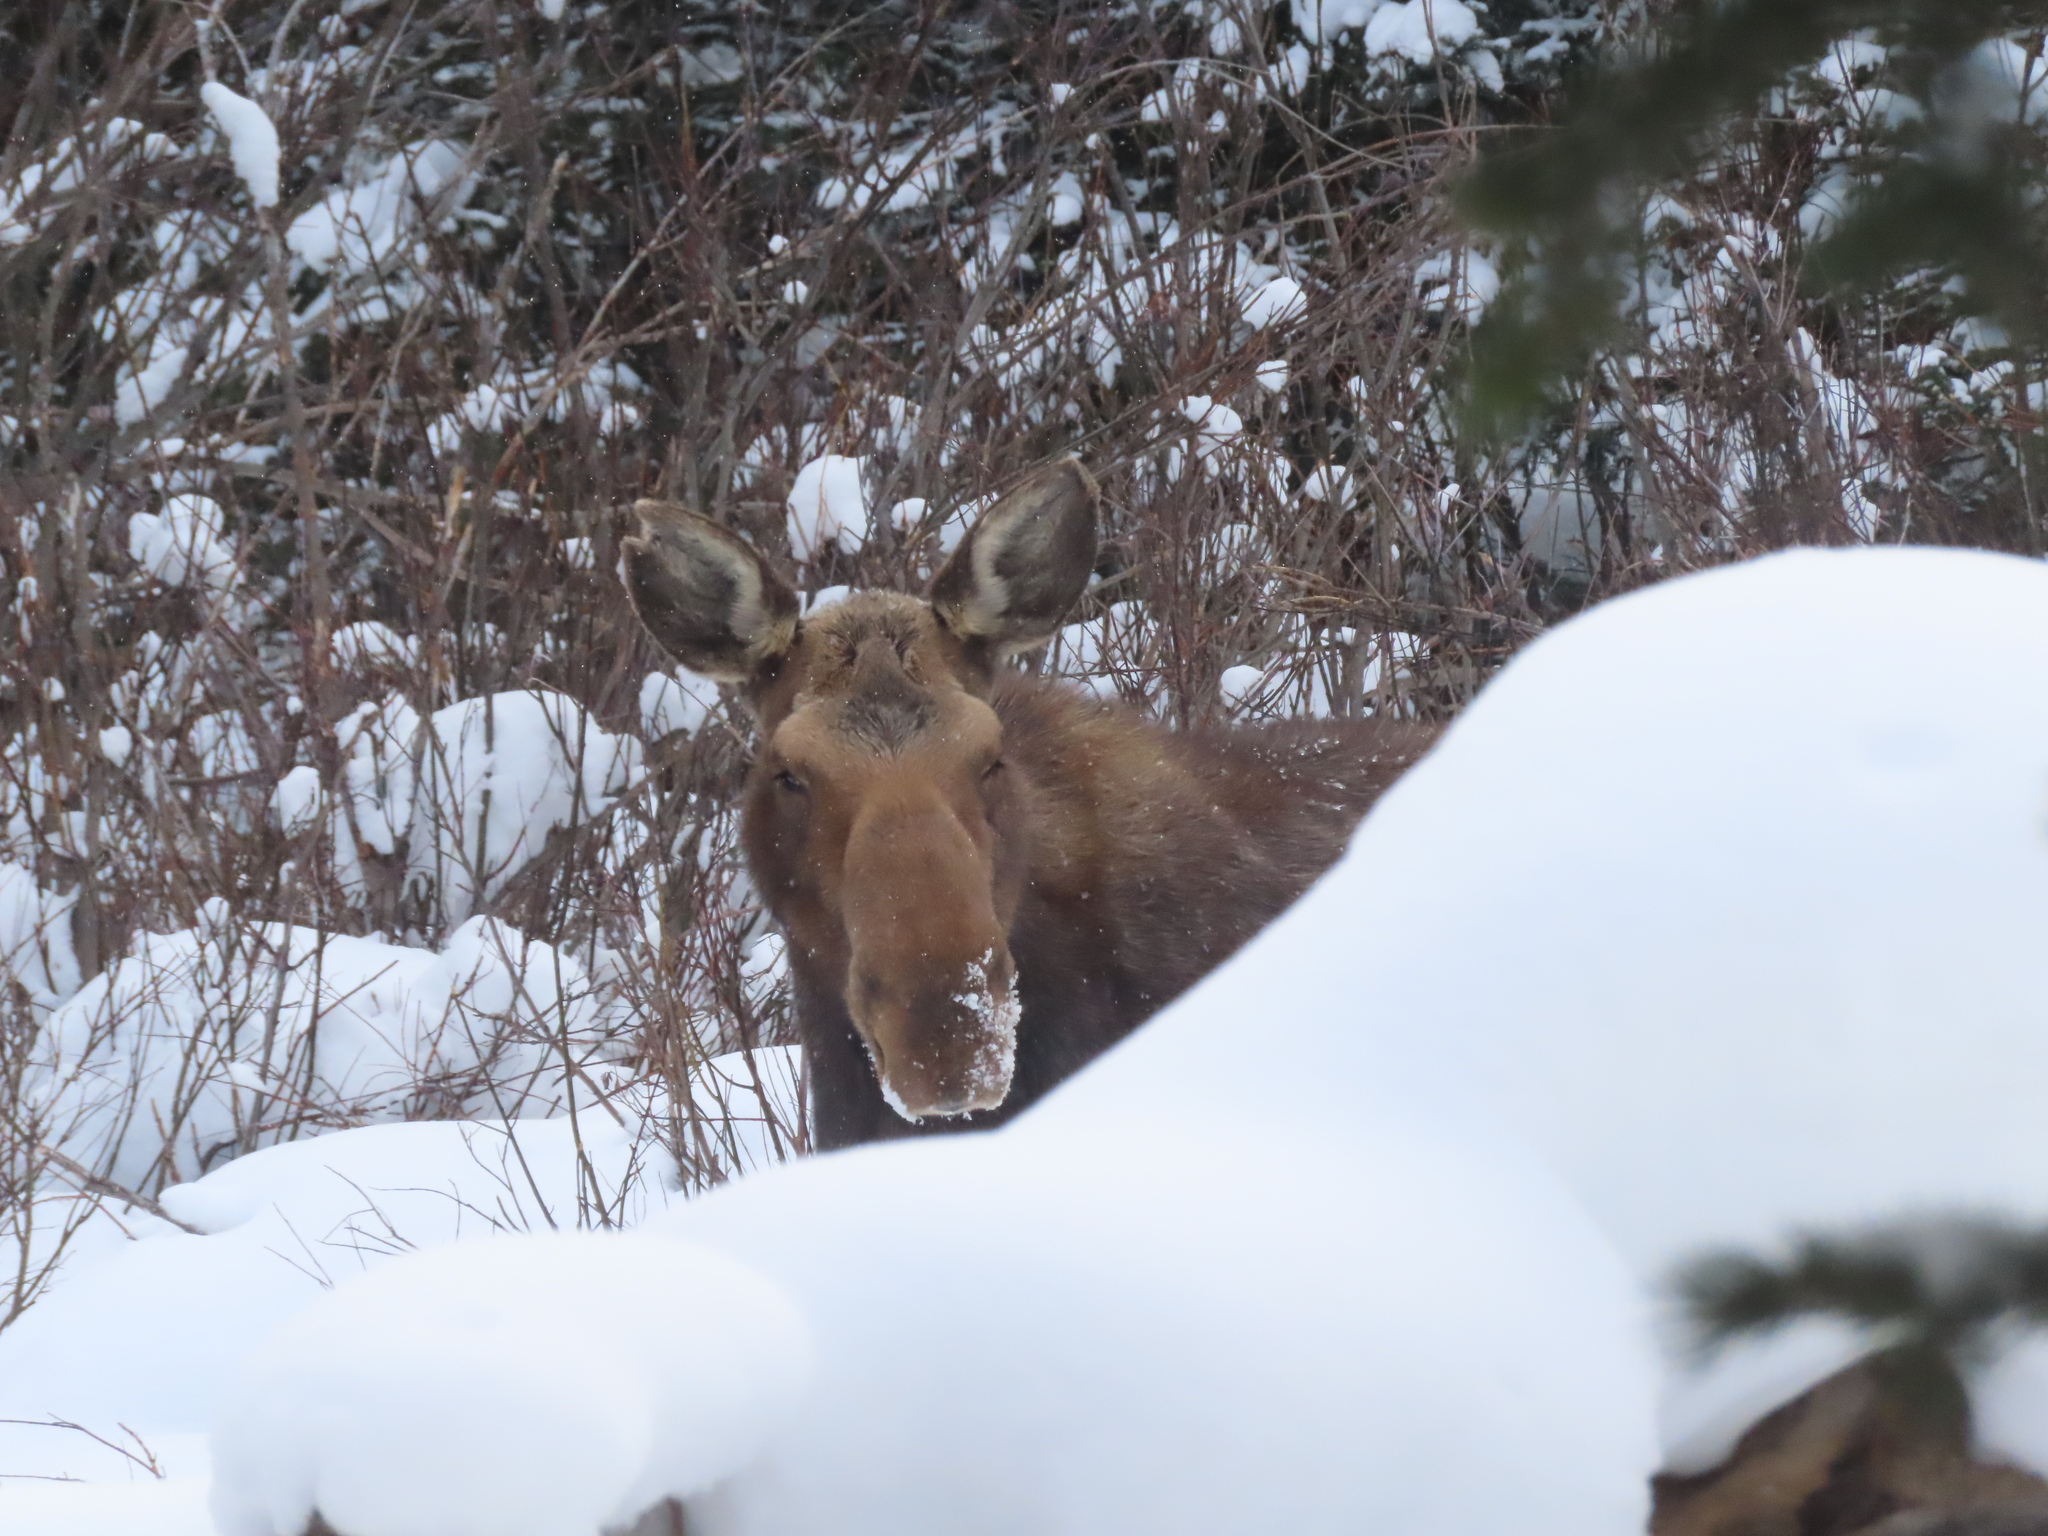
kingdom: Animalia
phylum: Chordata
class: Mammalia
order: Artiodactyla
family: Cervidae
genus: Alces
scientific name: Alces alces
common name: Moose
